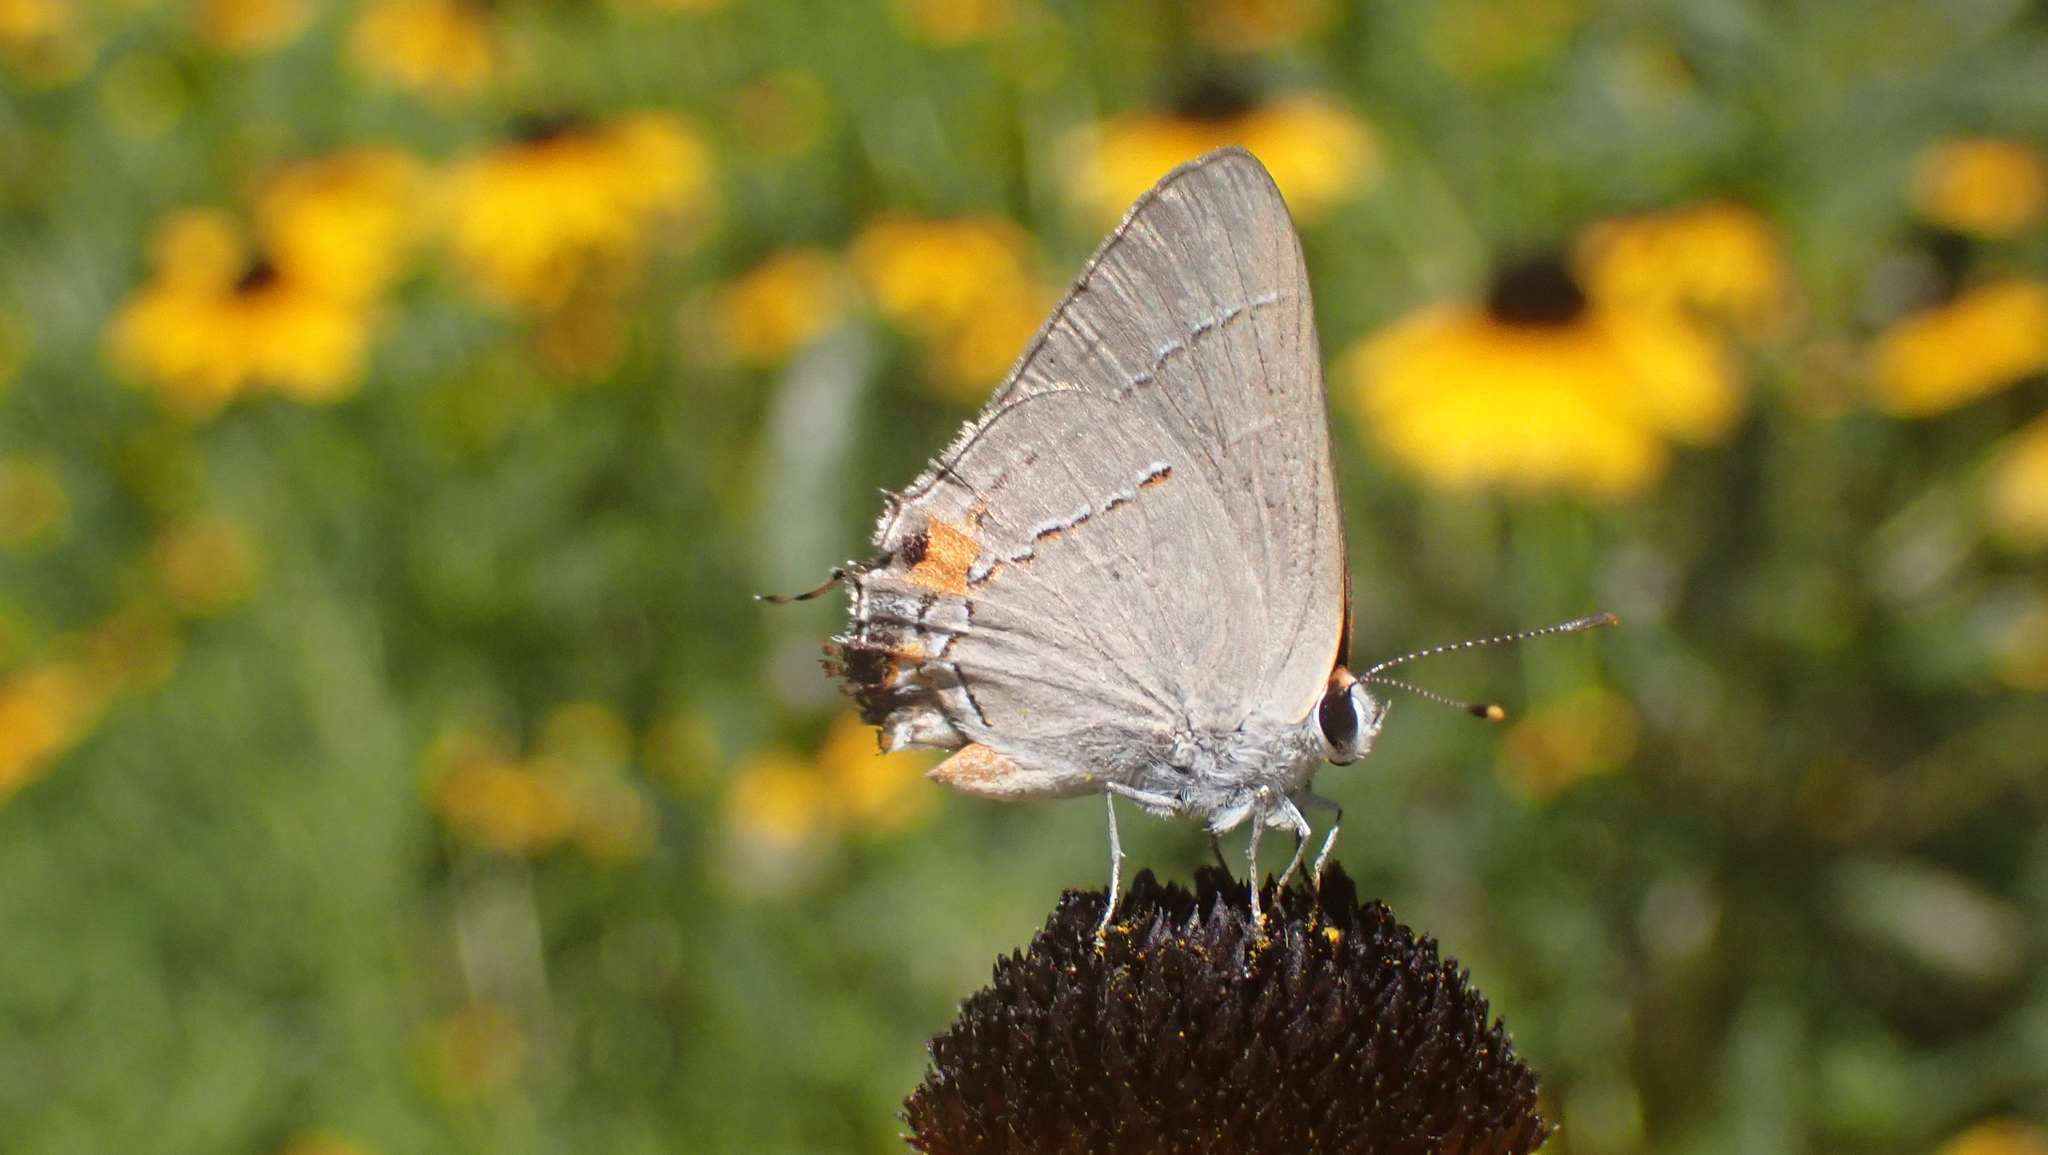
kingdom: Animalia
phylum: Arthropoda
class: Insecta
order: Lepidoptera
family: Lycaenidae
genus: Strymon
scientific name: Strymon melinus
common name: Gray hairstreak
